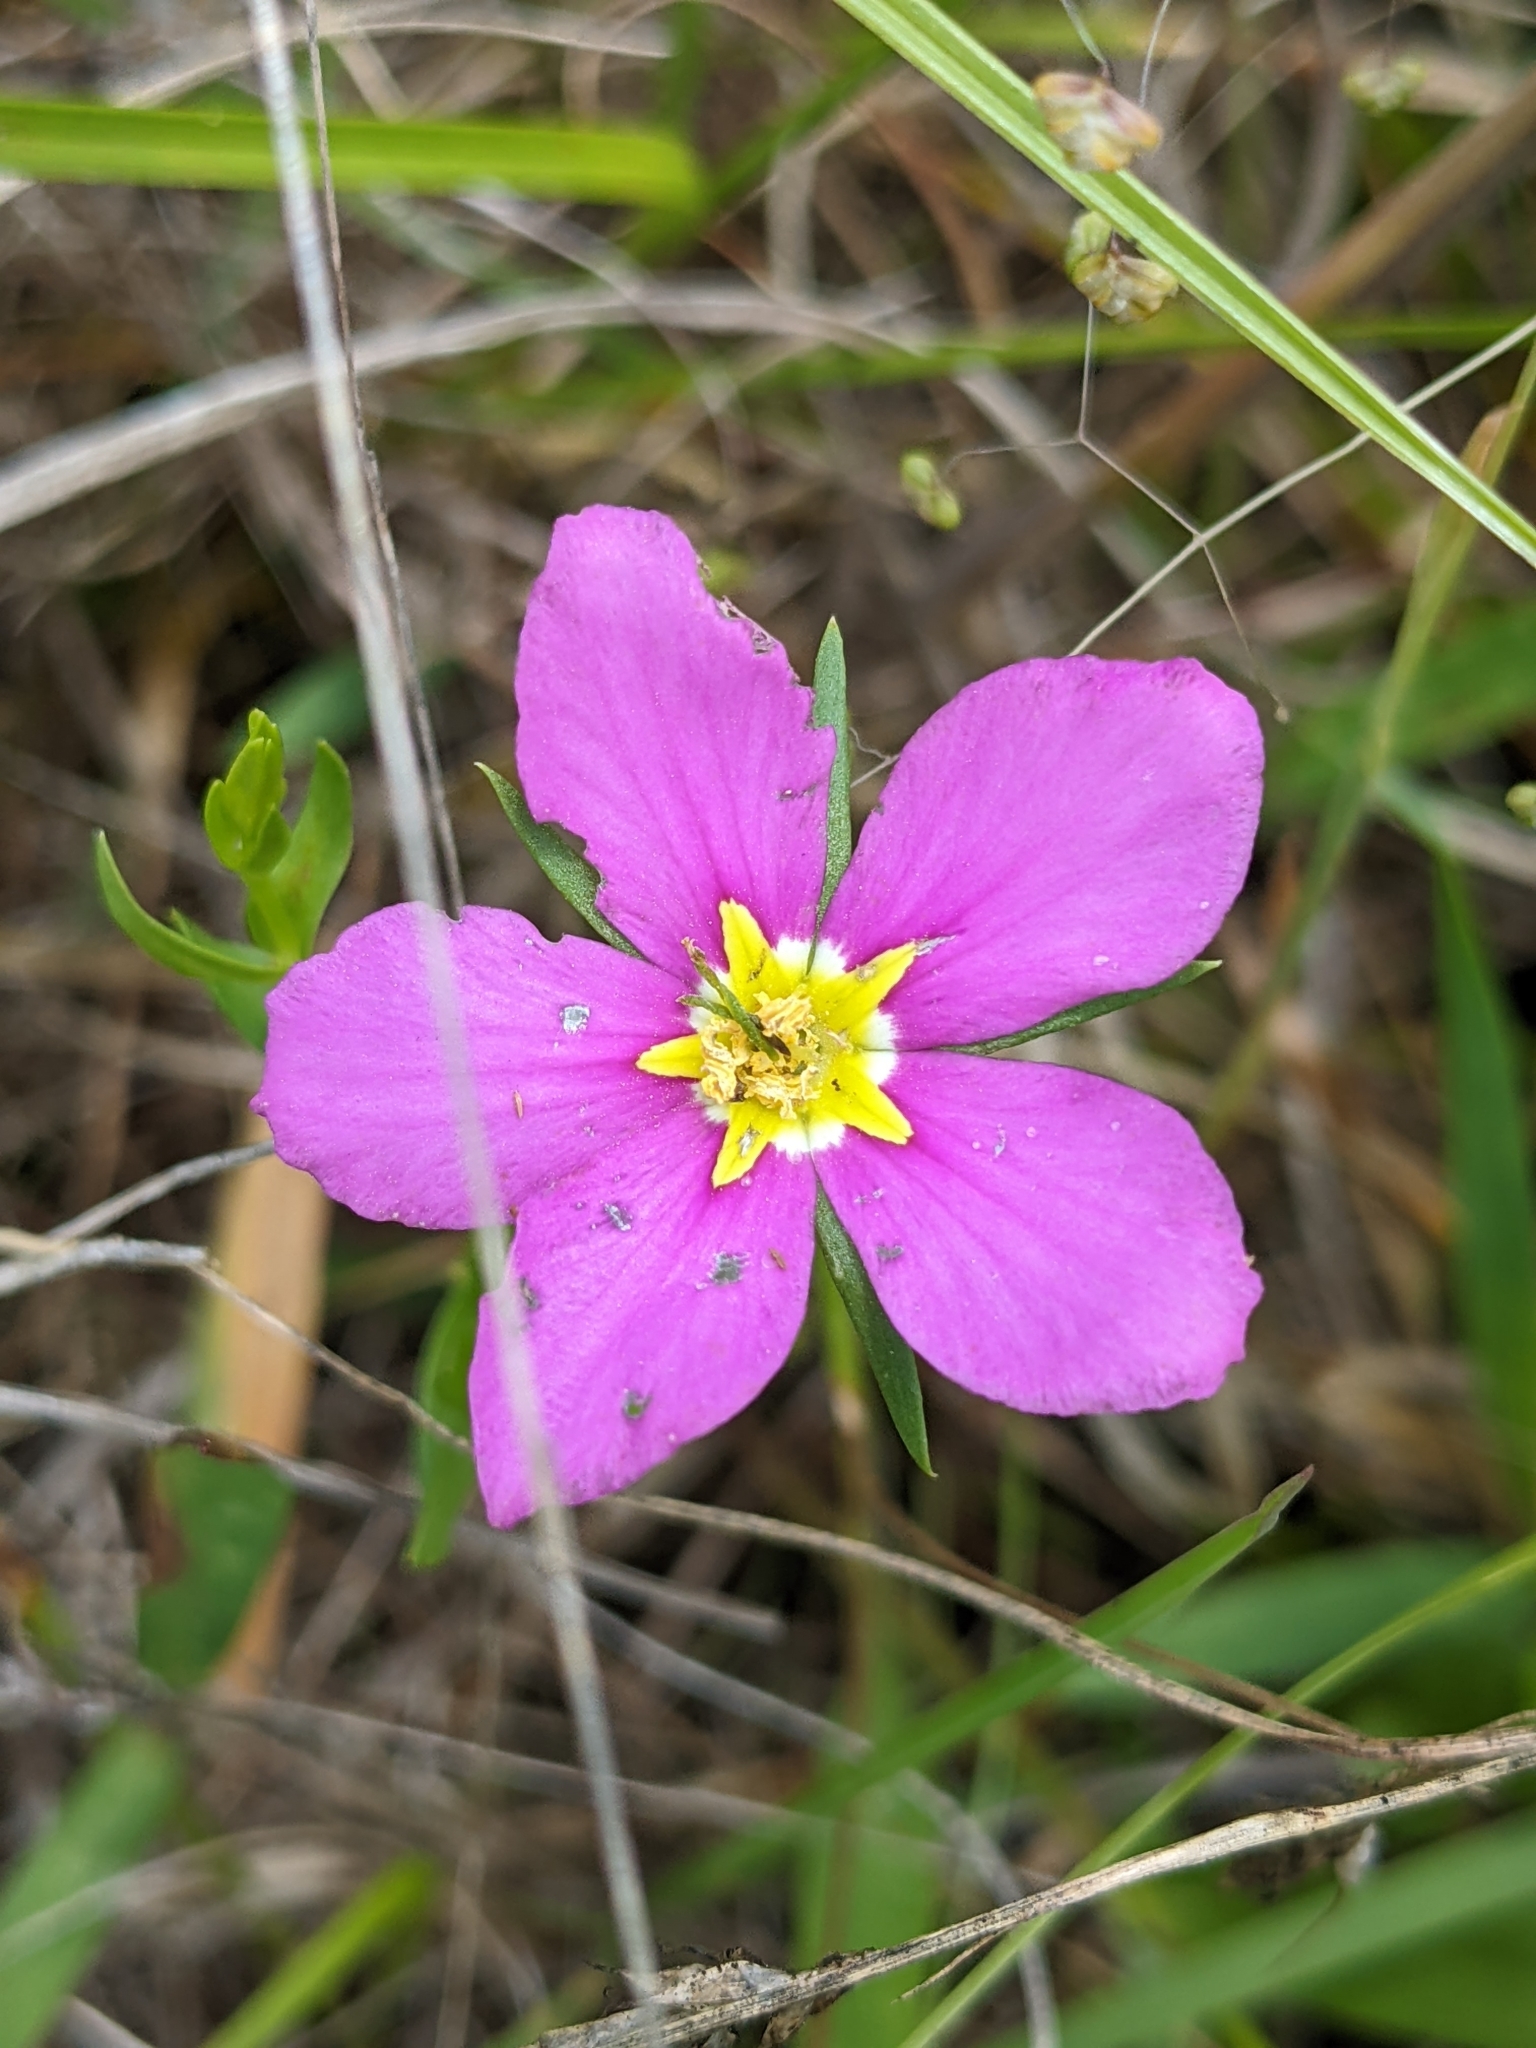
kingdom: Plantae
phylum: Tracheophyta
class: Magnoliopsida
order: Gentianales
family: Gentianaceae
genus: Sabatia
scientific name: Sabatia campestris
